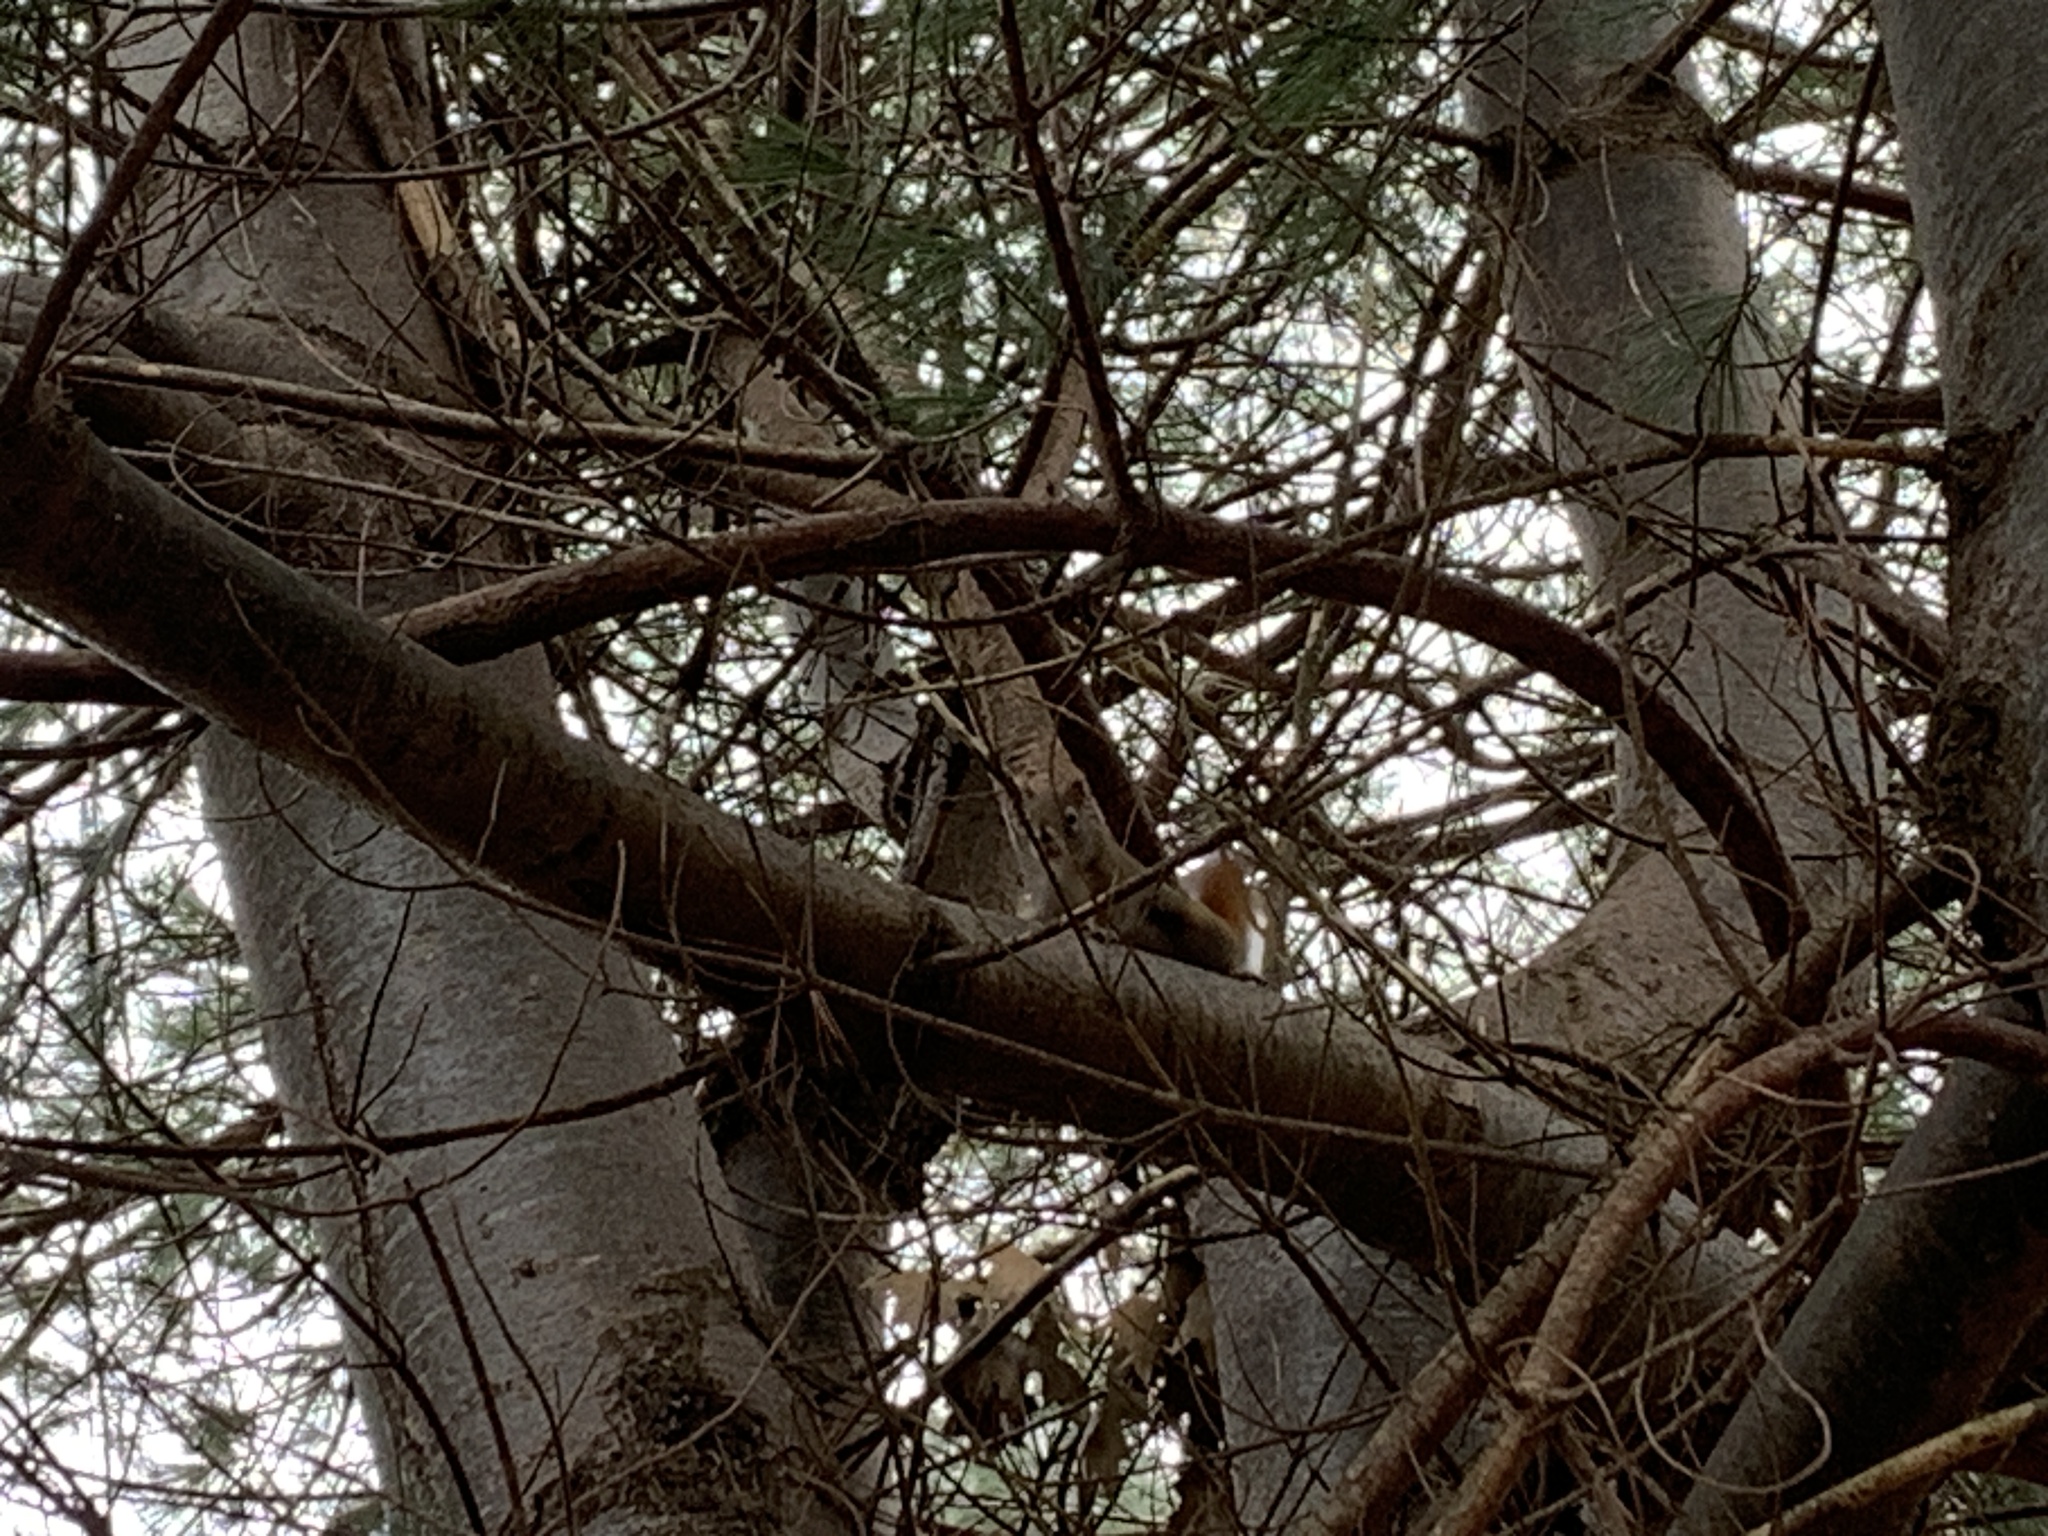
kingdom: Animalia
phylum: Chordata
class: Mammalia
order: Rodentia
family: Sciuridae
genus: Tamiasciurus
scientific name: Tamiasciurus hudsonicus
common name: Red squirrel
